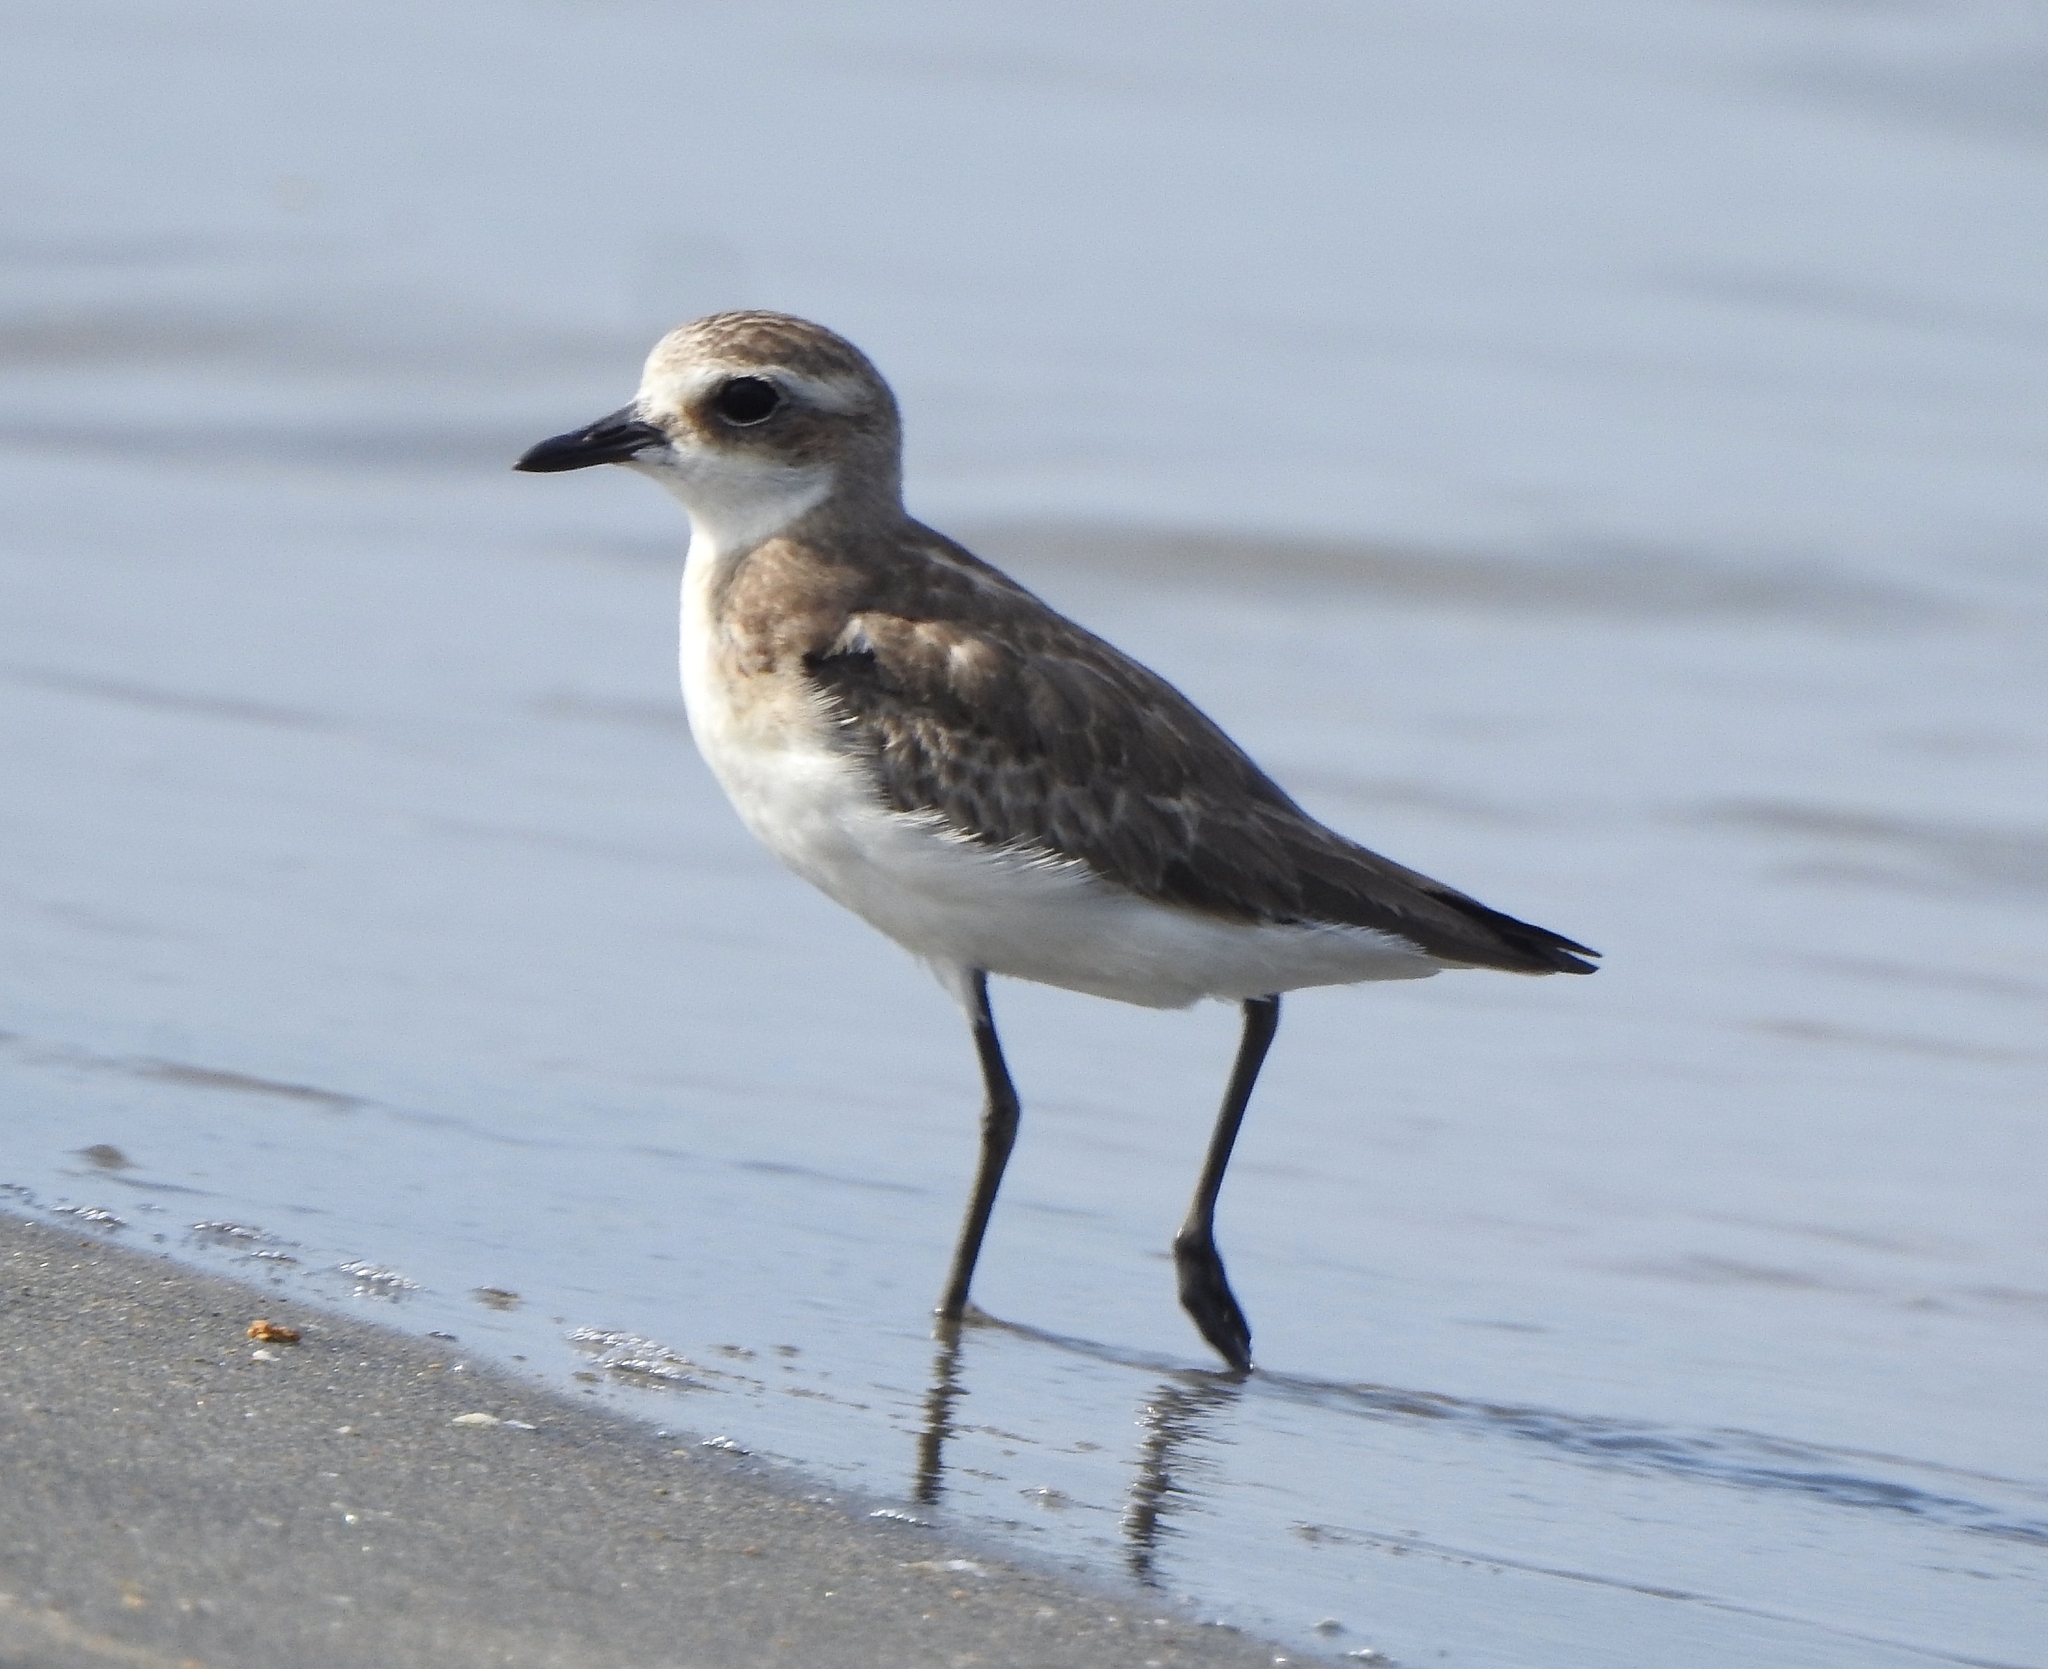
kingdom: Animalia
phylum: Chordata
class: Aves
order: Charadriiformes
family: Charadriidae
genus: Anarhynchus
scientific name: Anarhynchus
